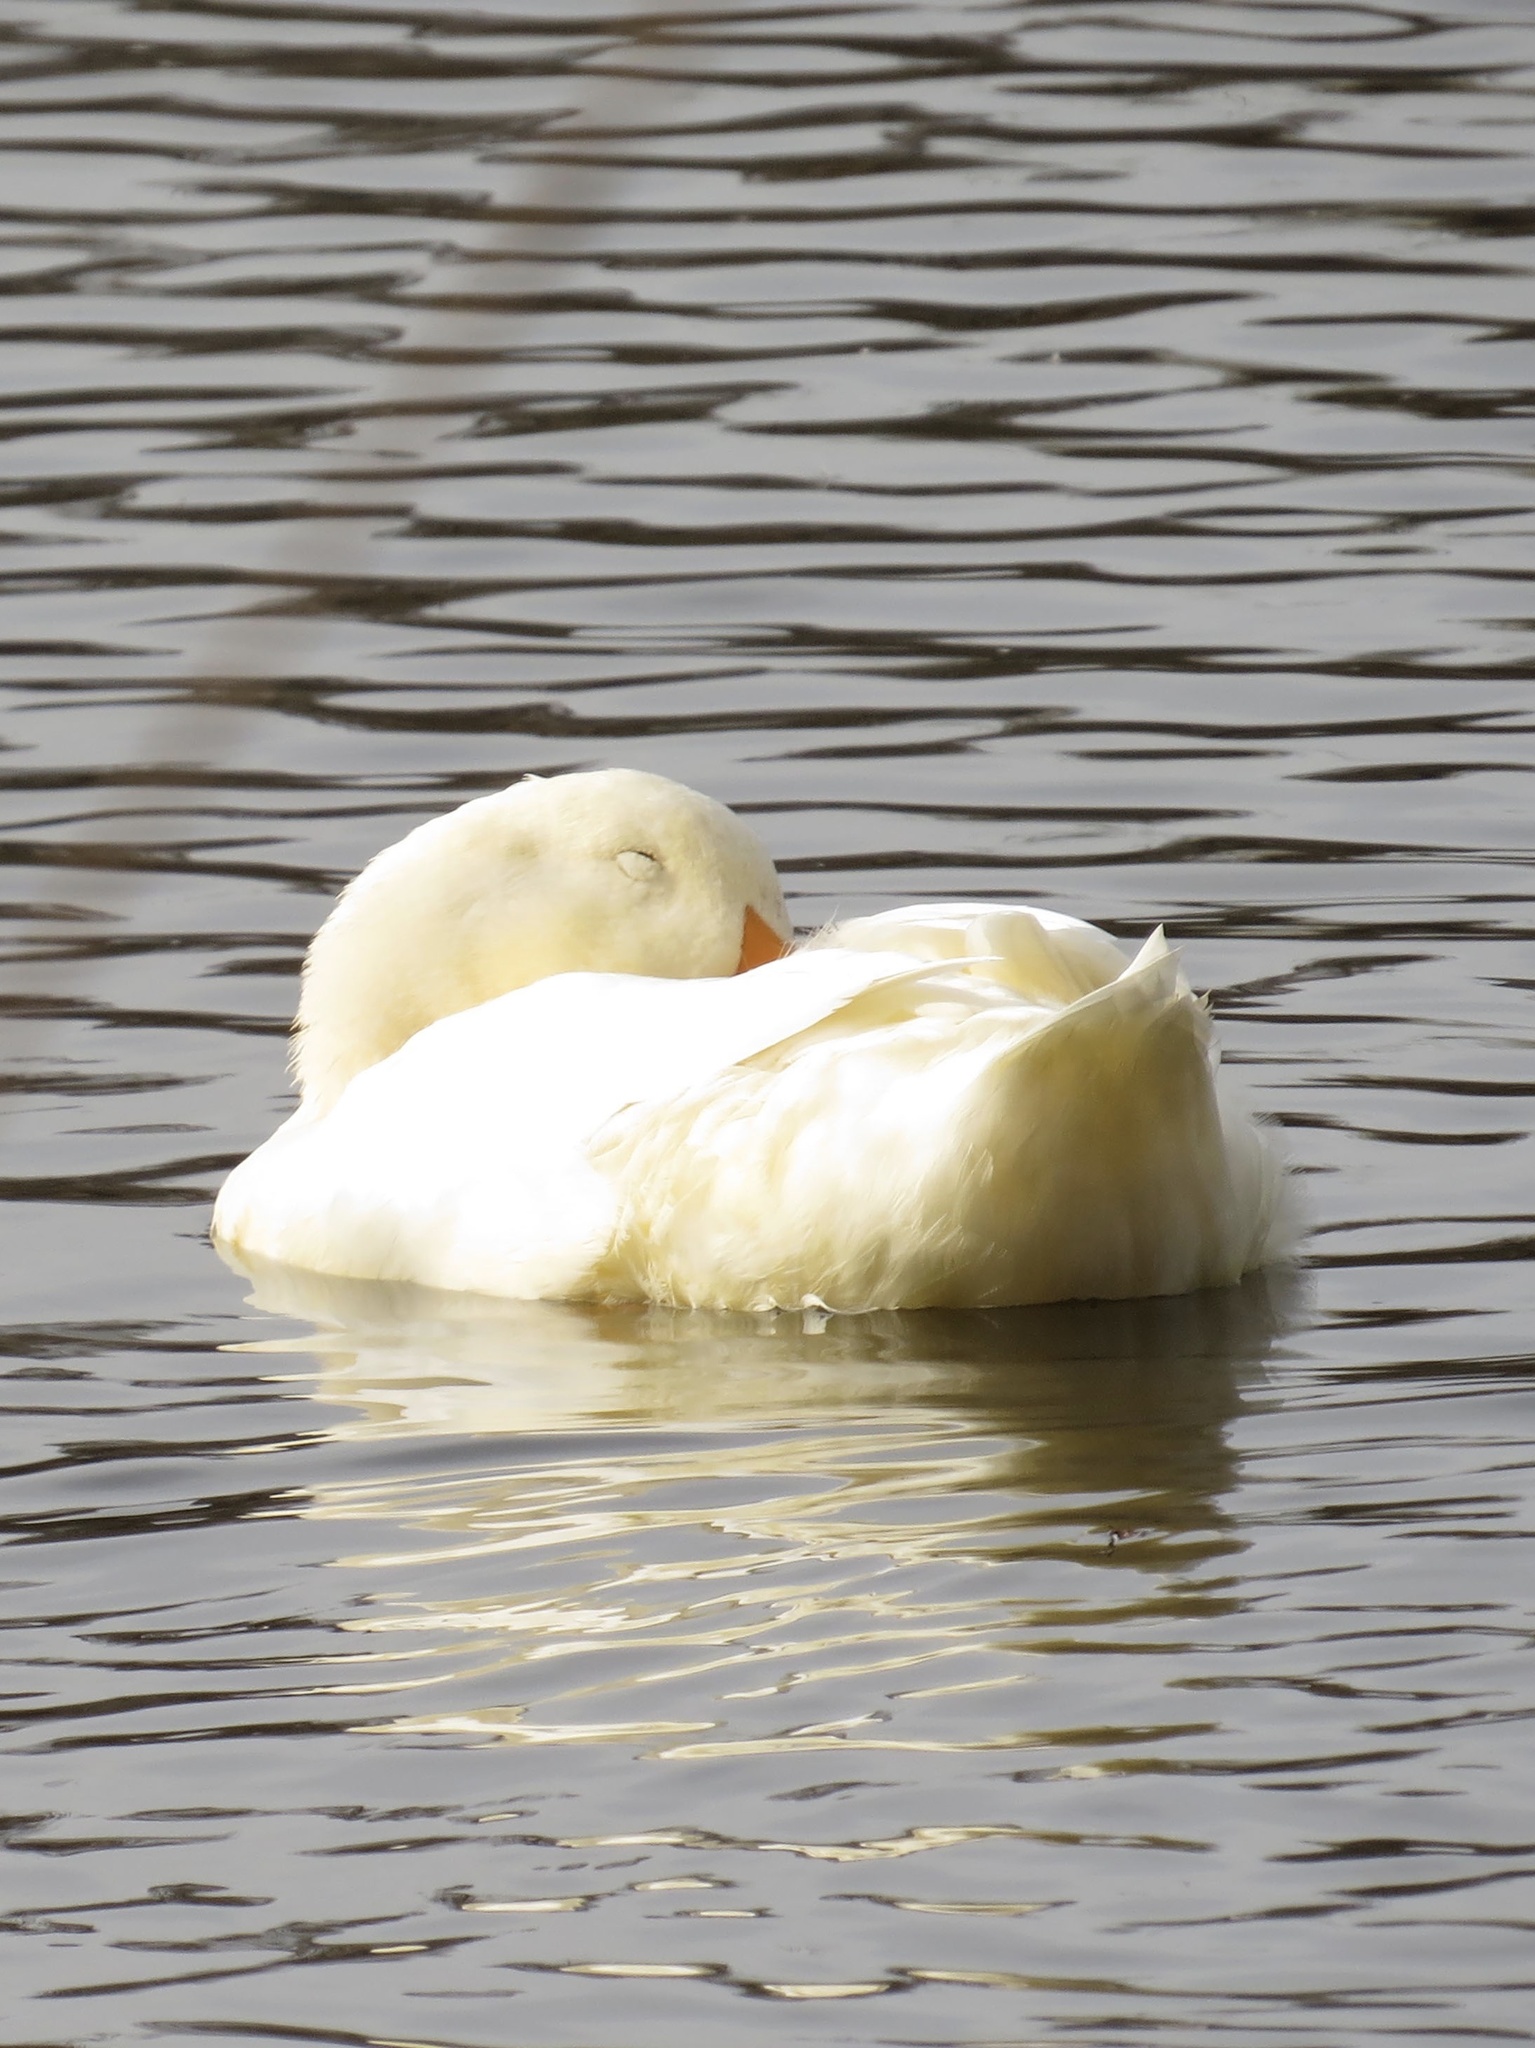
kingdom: Animalia
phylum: Chordata
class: Aves
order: Anseriformes
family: Anatidae
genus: Anas
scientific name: Anas platyrhynchos
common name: Mallard
